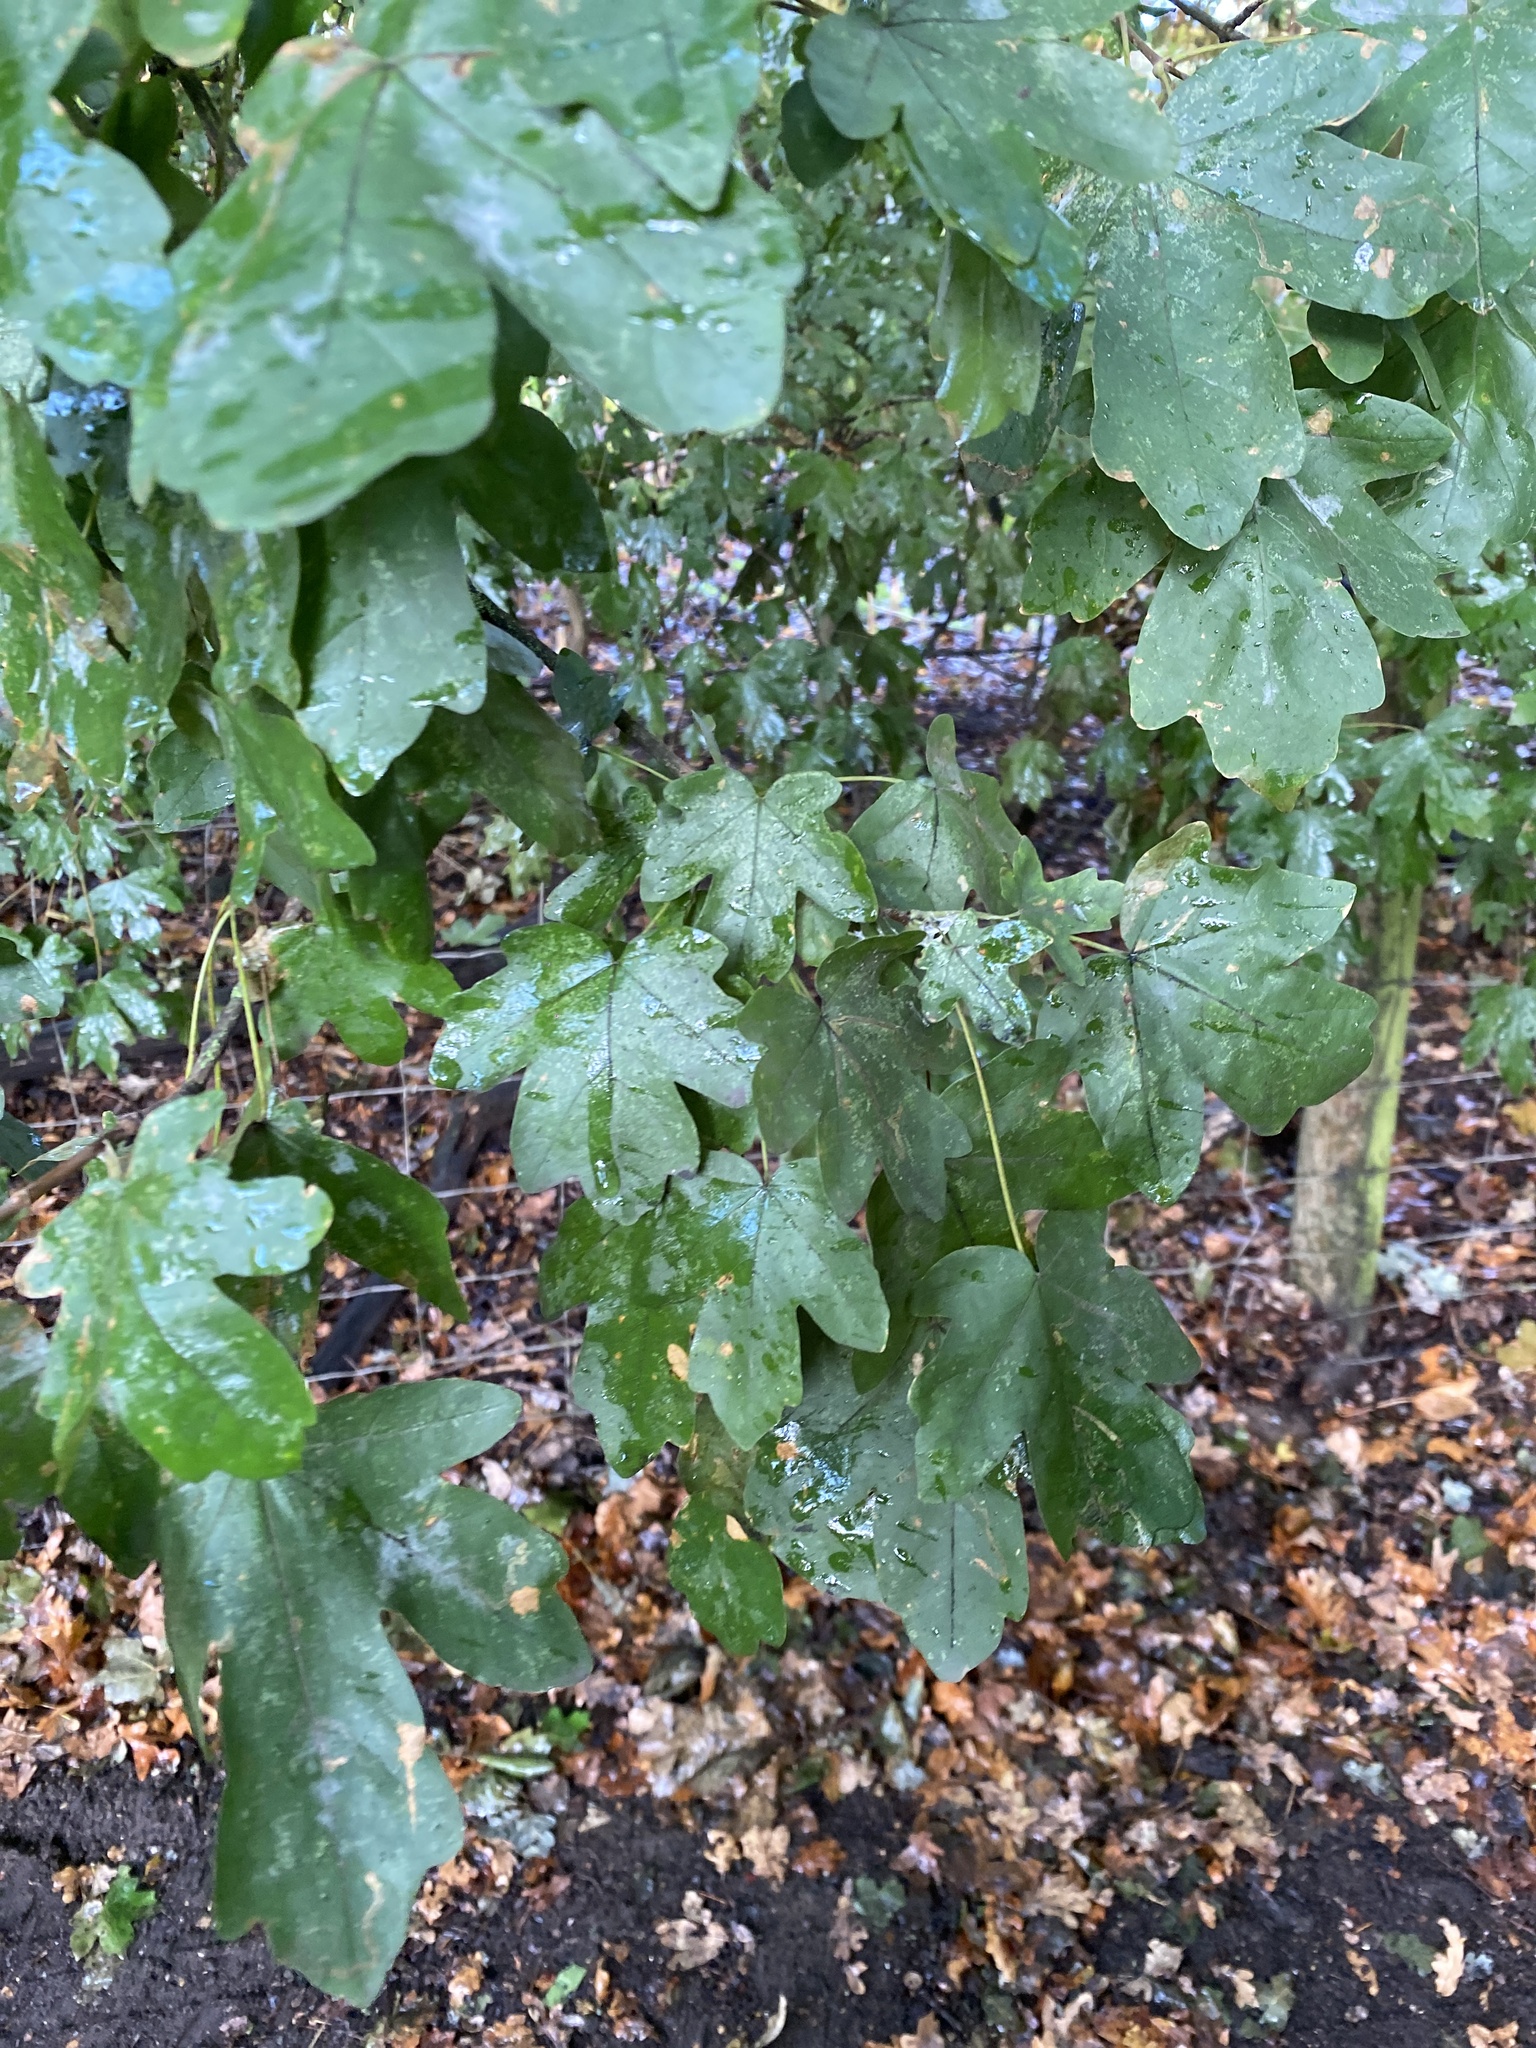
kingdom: Plantae
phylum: Tracheophyta
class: Magnoliopsida
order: Sapindales
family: Sapindaceae
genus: Acer
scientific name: Acer campestre
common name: Field maple
